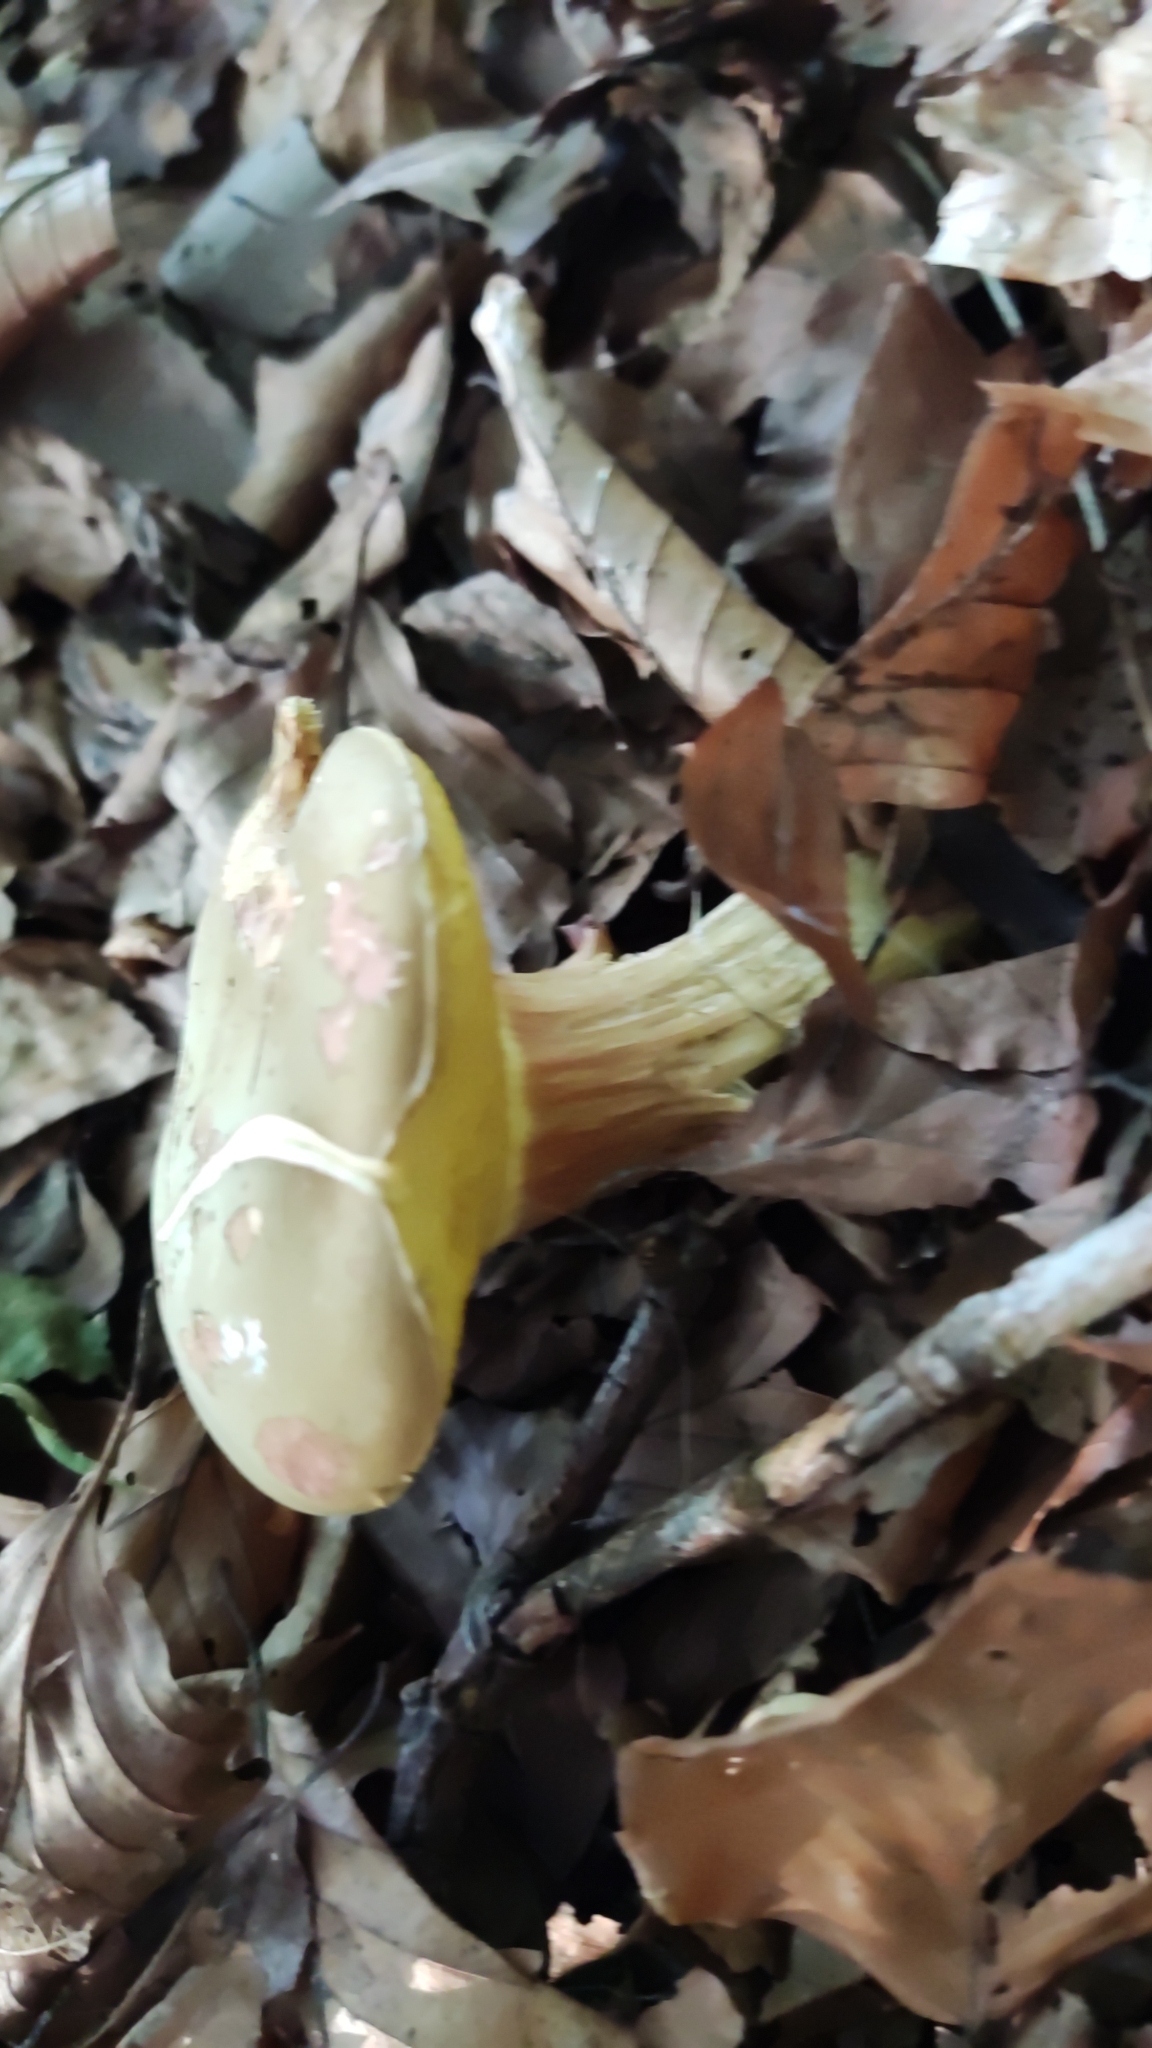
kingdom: Fungi
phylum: Basidiomycota
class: Agaricomycetes
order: Boletales
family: Boletaceae
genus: Xerocomus
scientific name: Xerocomus subtomentosus
